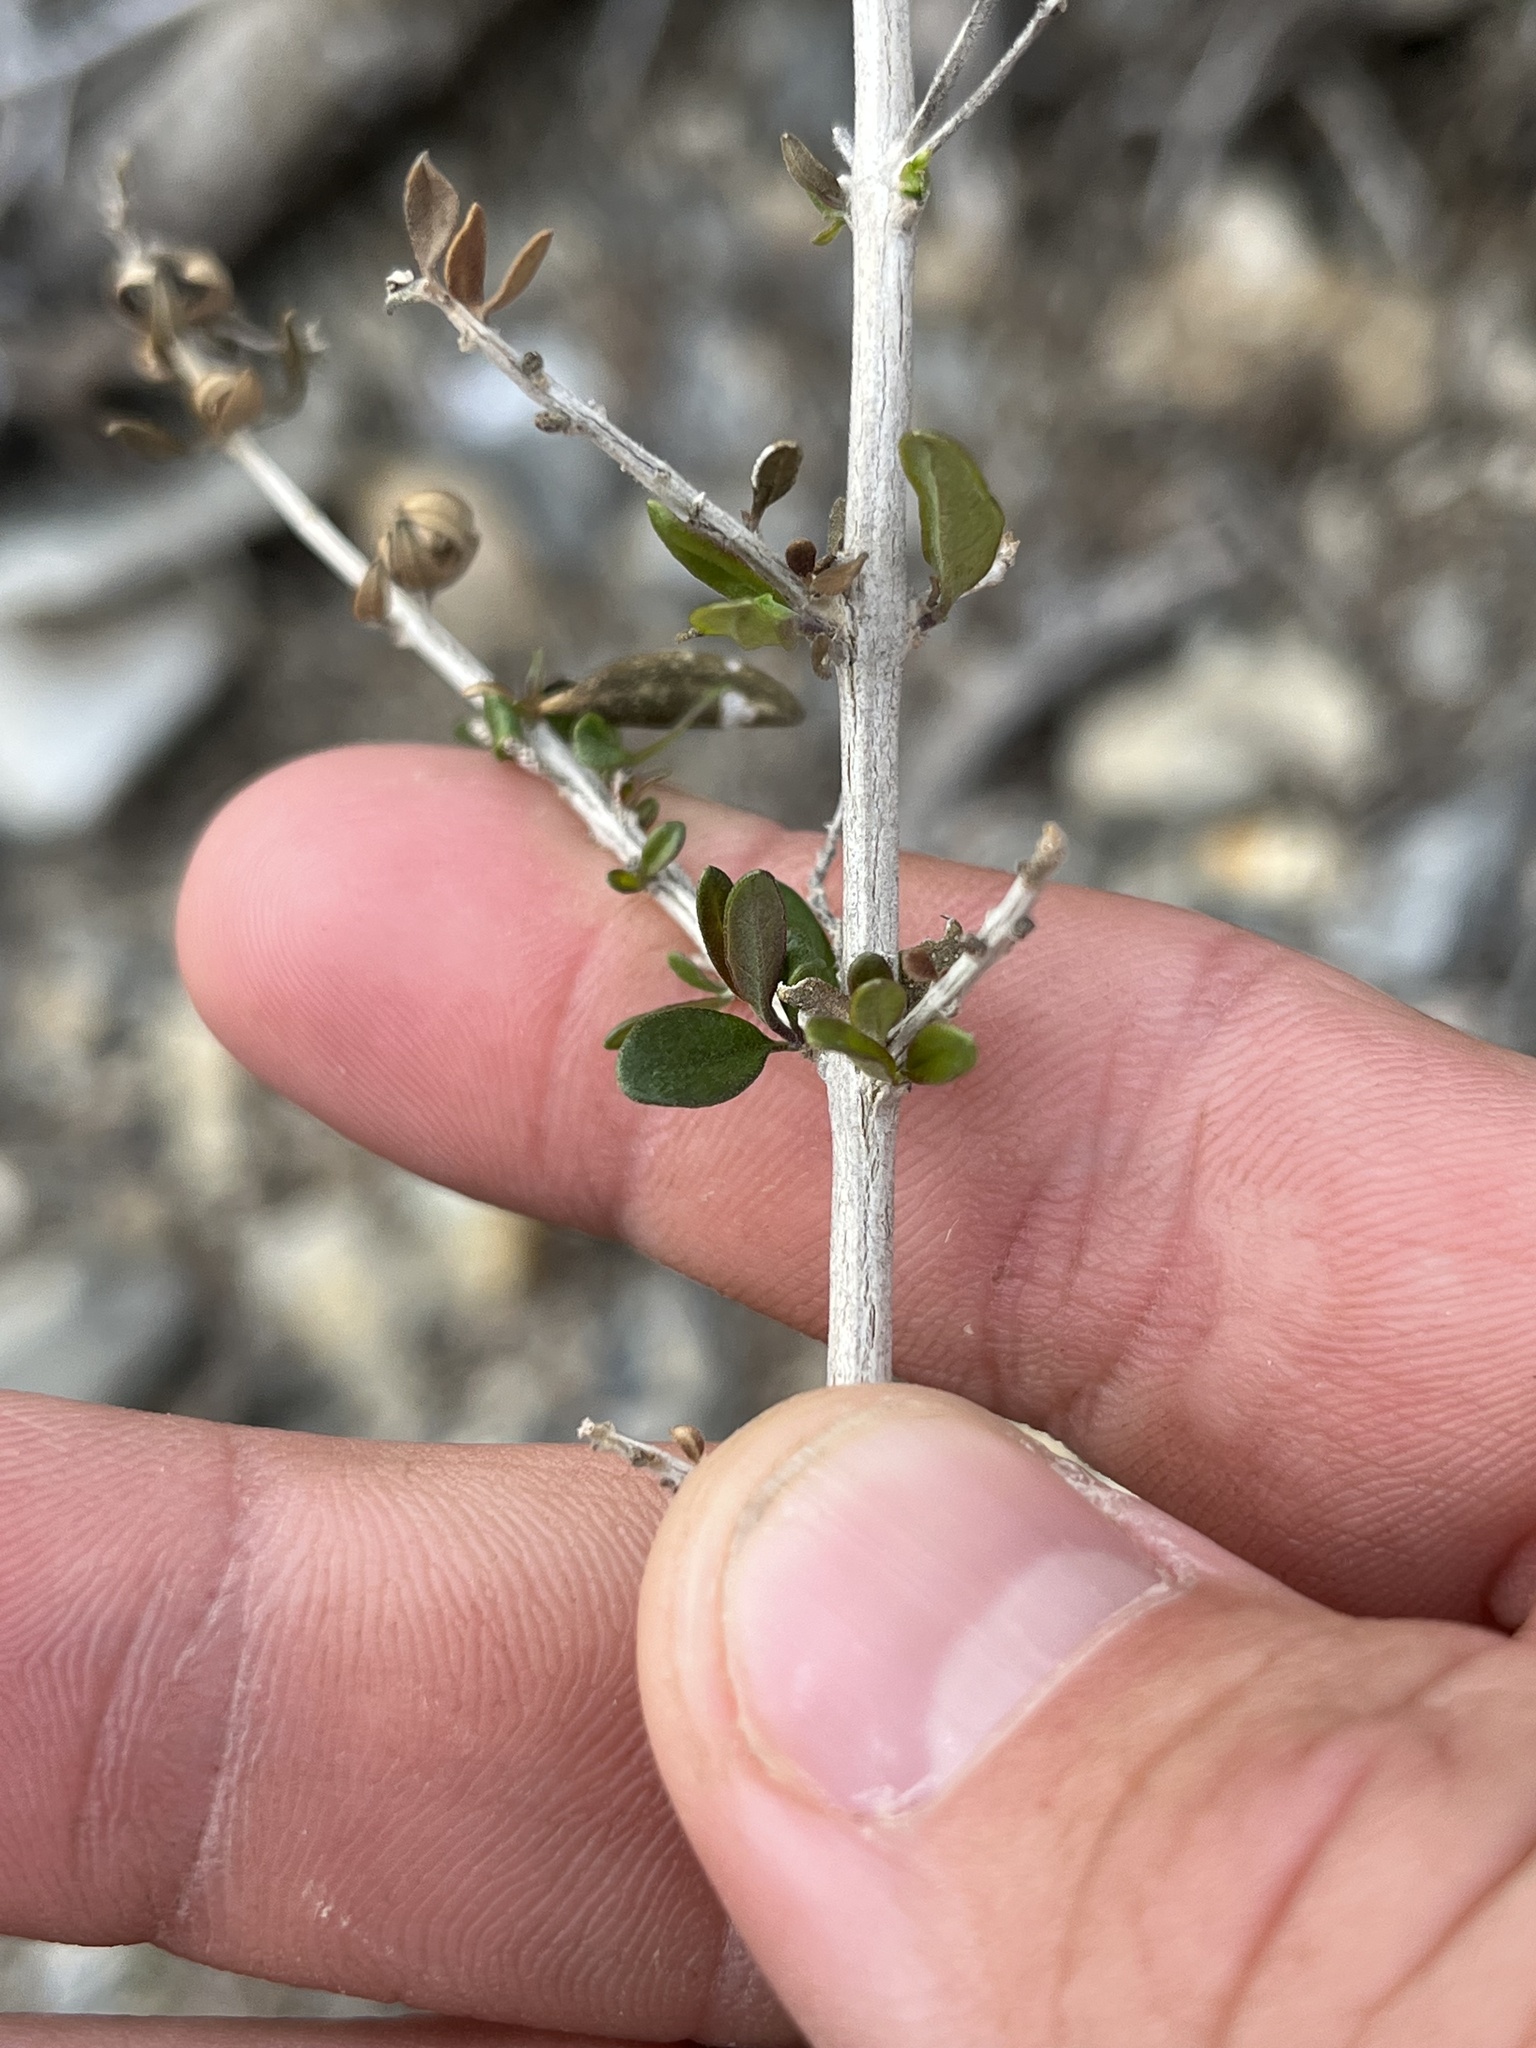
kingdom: Plantae
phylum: Tracheophyta
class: Magnoliopsida
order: Lamiales
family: Verbenaceae
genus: Aloysia
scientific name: Aloysia gratissima
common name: Common bee-brush
